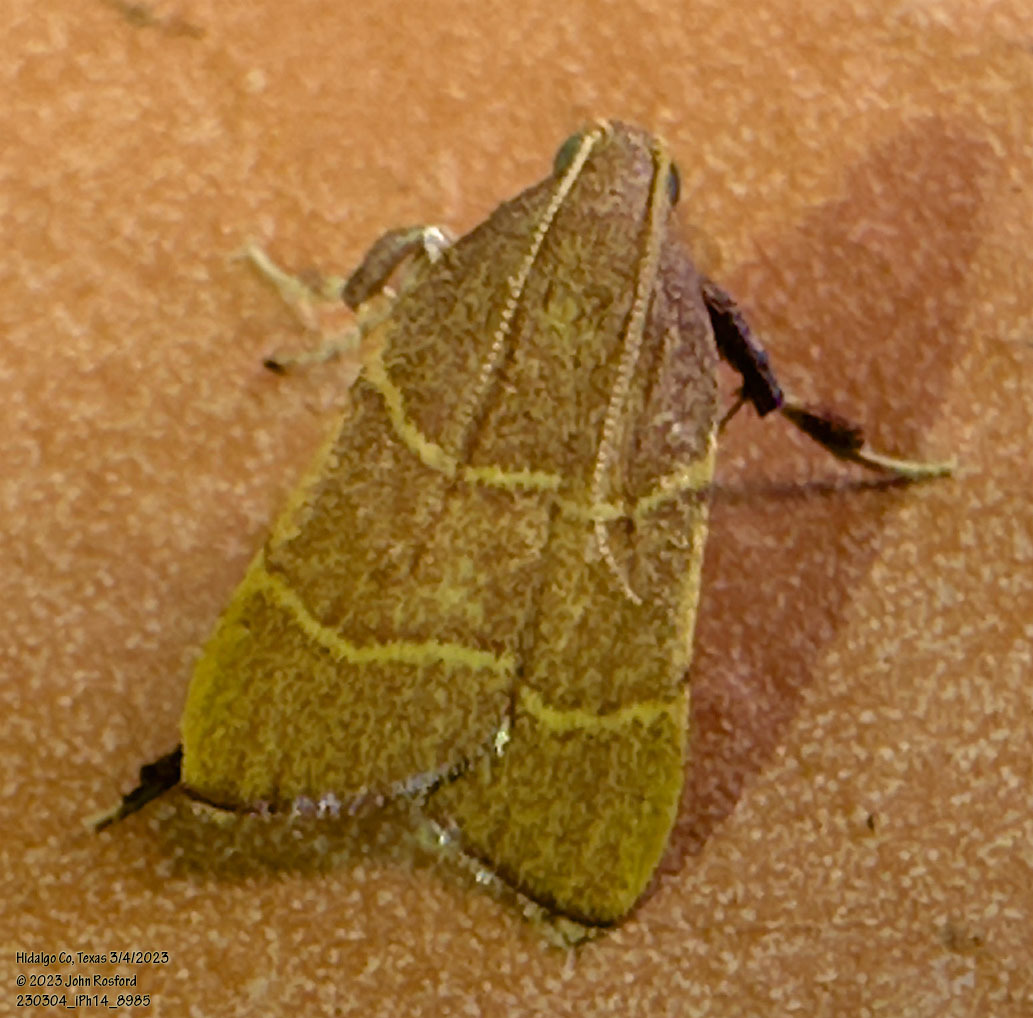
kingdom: Animalia
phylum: Arthropoda
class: Insecta
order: Lepidoptera
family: Pyralidae
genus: Parachma
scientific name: Parachma ochracealis
